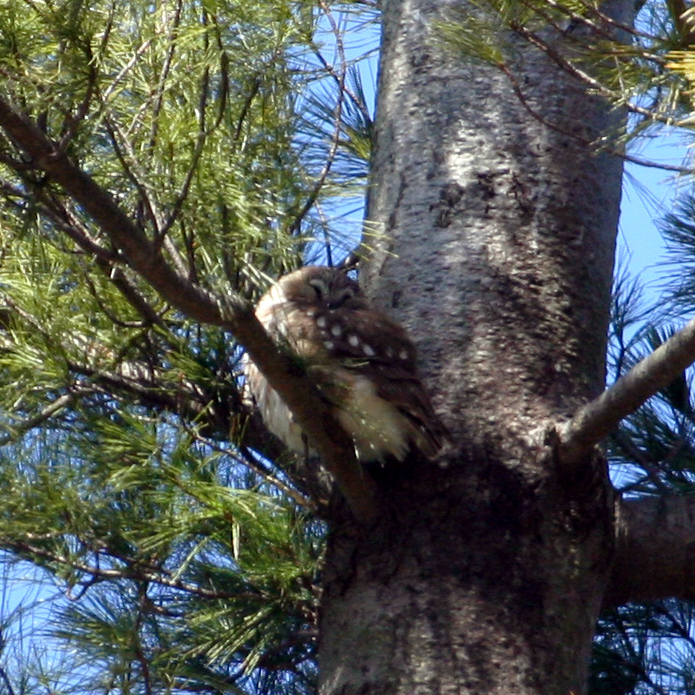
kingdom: Animalia
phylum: Chordata
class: Aves
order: Strigiformes
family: Strigidae
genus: Aegolius
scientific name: Aegolius acadicus
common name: Northern saw-whet owl
